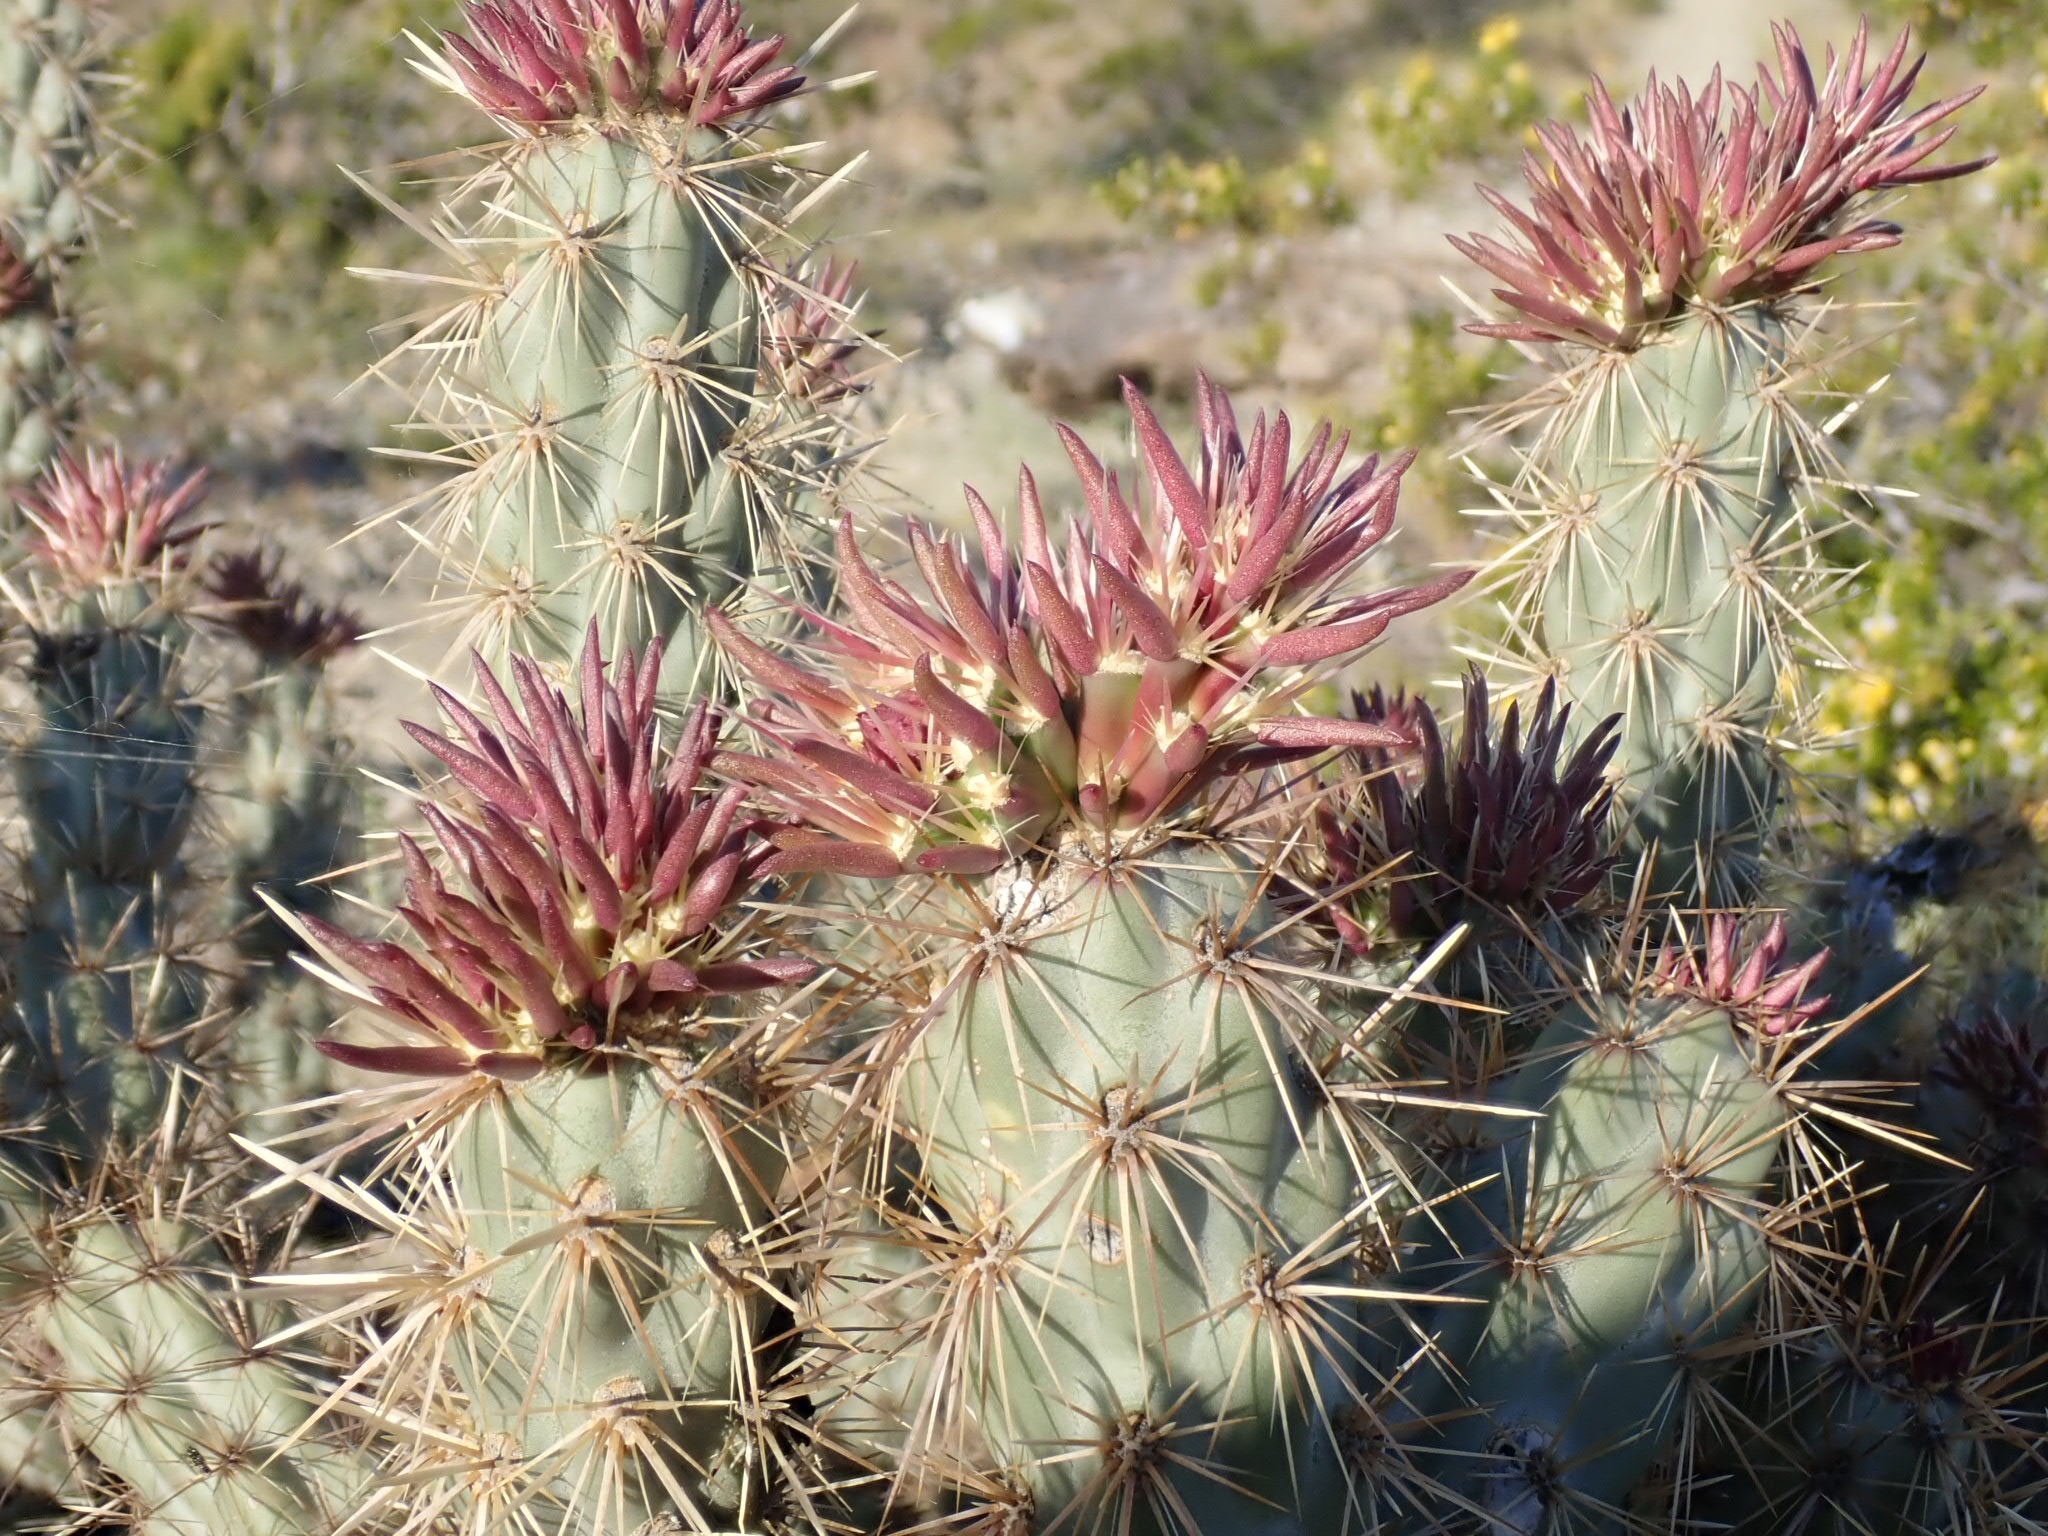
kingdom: Plantae
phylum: Tracheophyta
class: Magnoliopsida
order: Caryophyllales
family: Cactaceae
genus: Cylindropuntia
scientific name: Cylindropuntia acanthocarpa
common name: Buckhorn cholla
